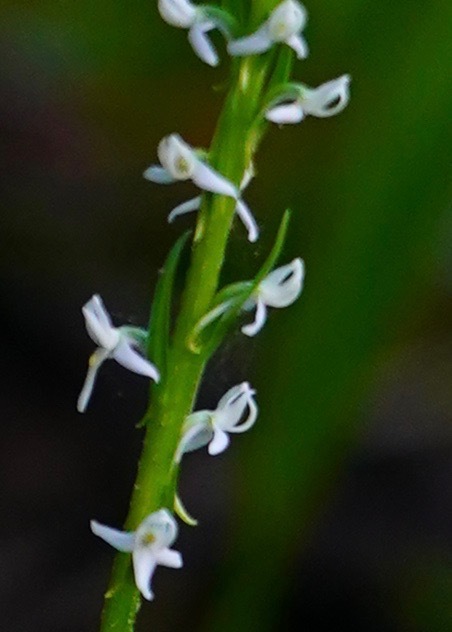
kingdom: Plantae
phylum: Tracheophyta
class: Liliopsida
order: Asparagales
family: Orchidaceae
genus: Platanthera
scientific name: Platanthera dilatata
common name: Bog candles
